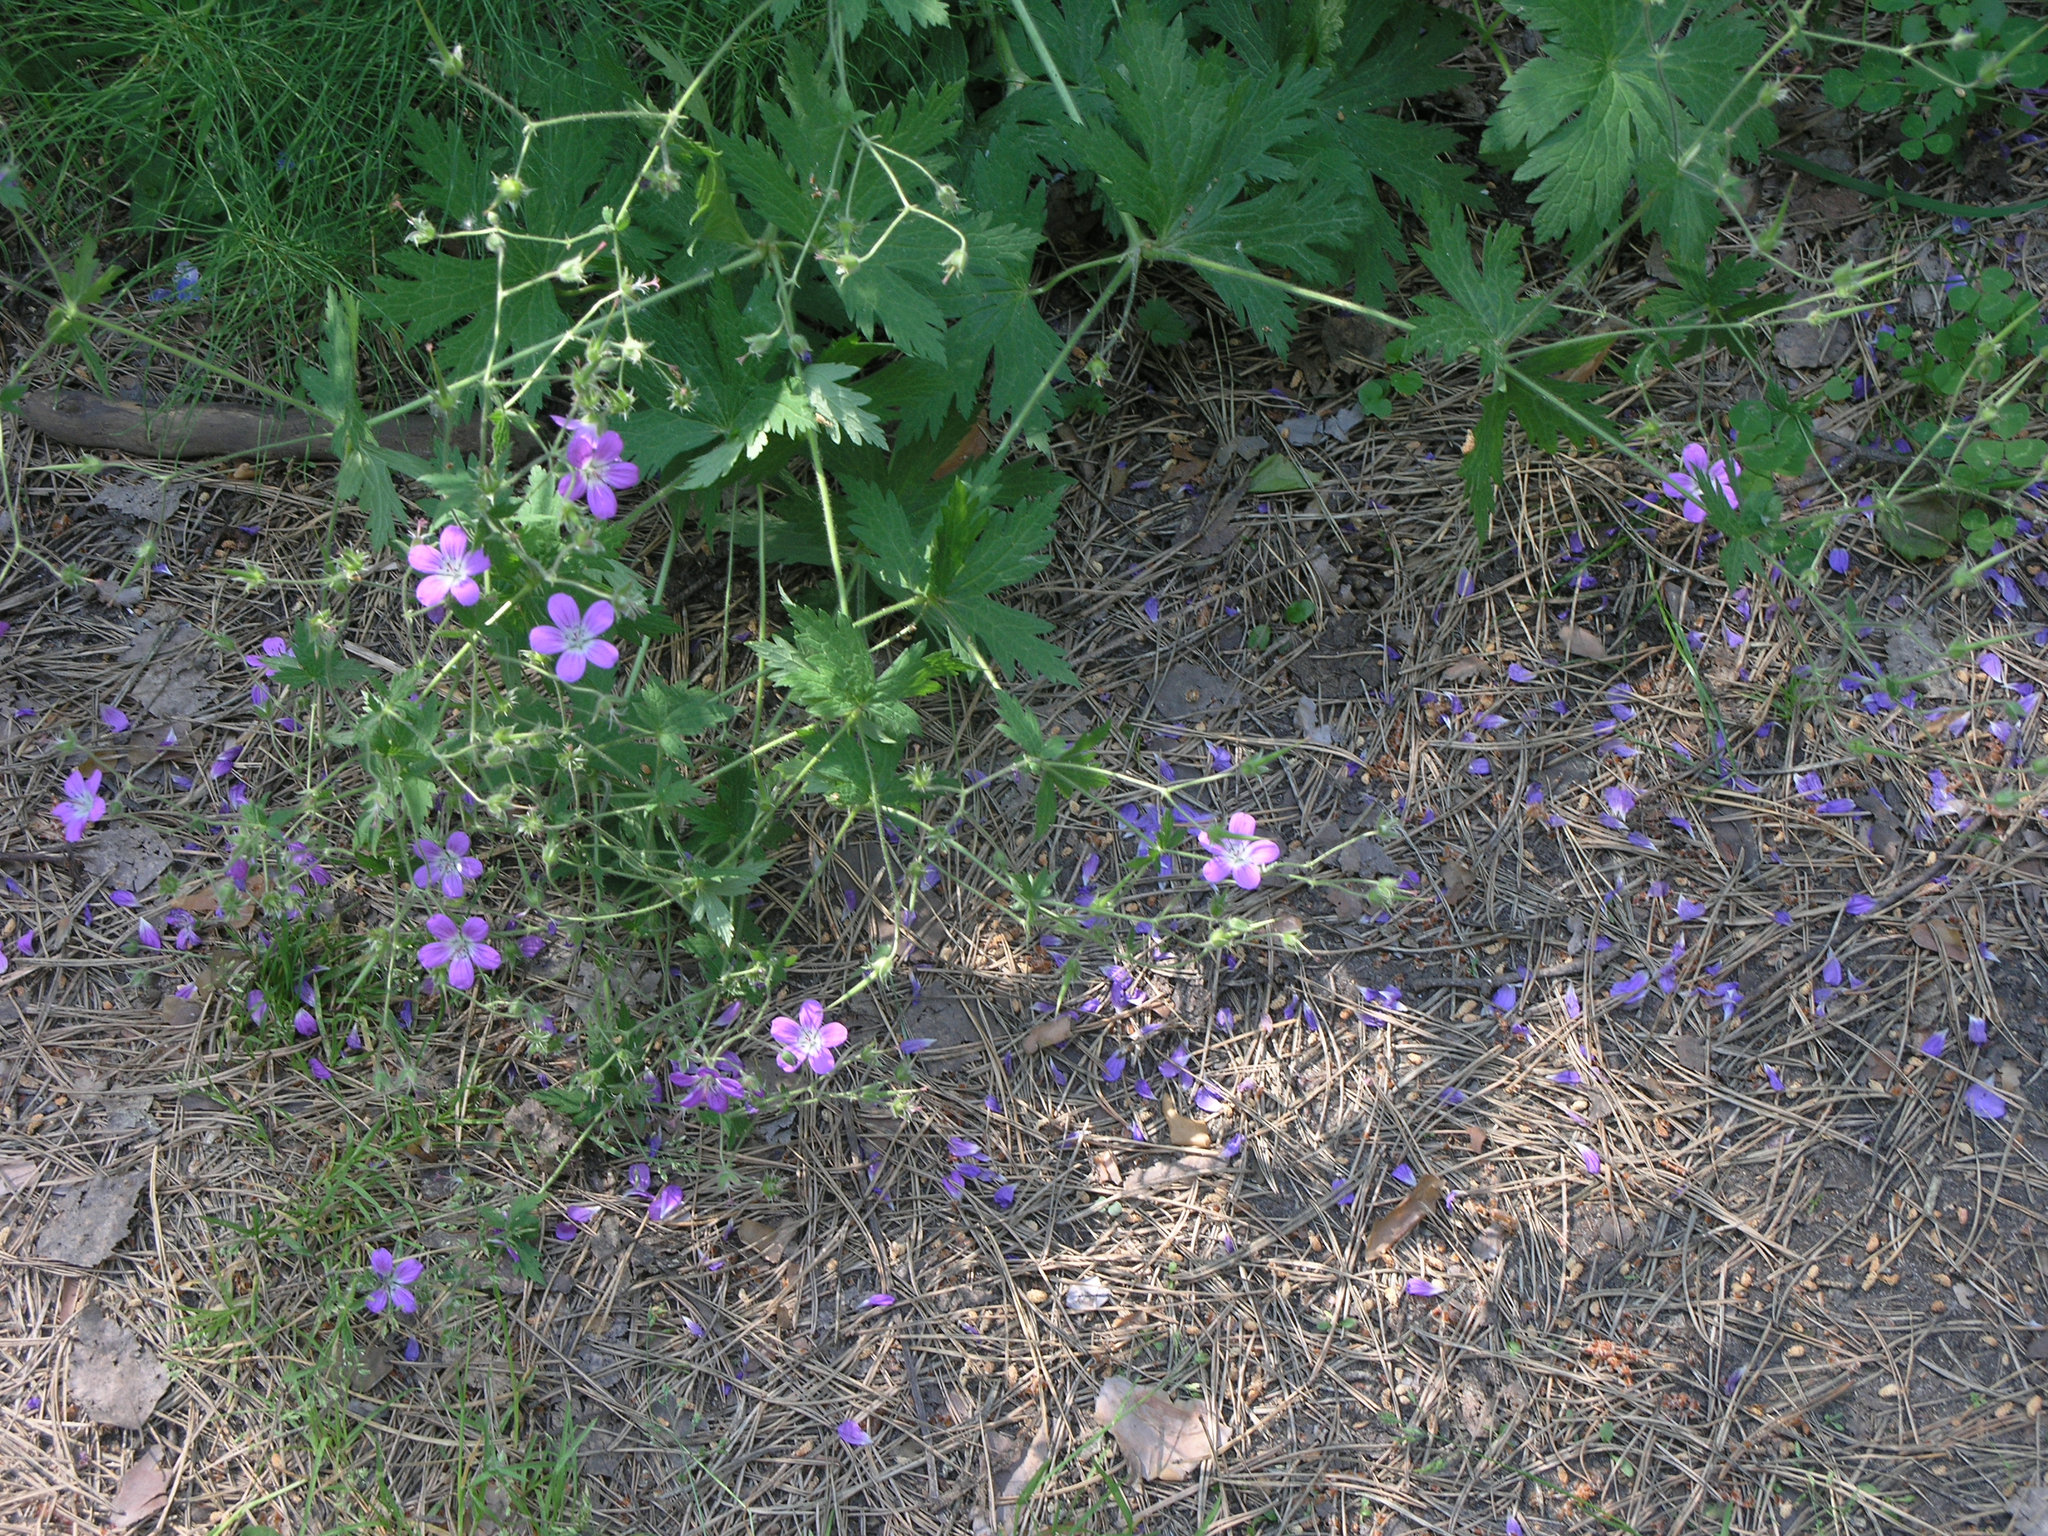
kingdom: Plantae
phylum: Tracheophyta
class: Magnoliopsida
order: Geraniales
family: Geraniaceae
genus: Geranium
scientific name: Geranium sylvaticum
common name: Wood crane's-bill
